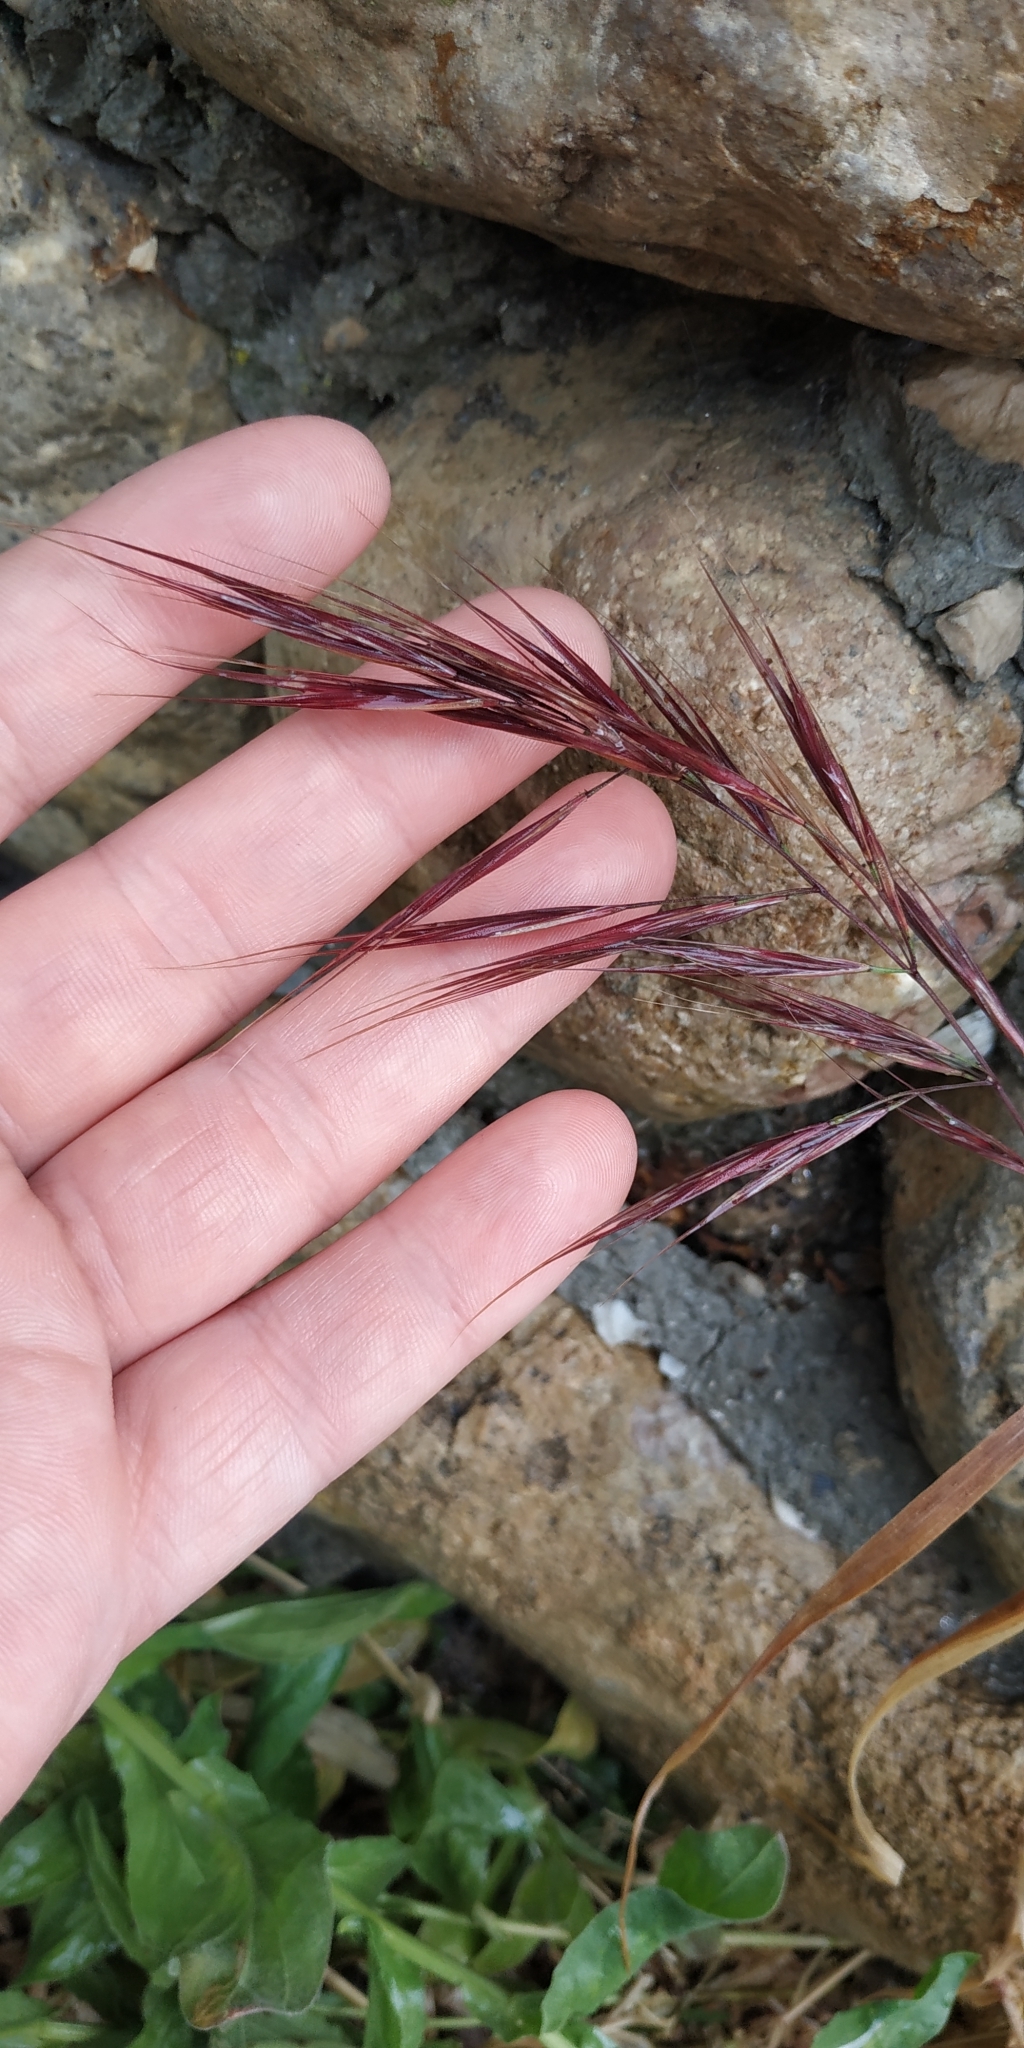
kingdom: Plantae
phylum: Tracheophyta
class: Liliopsida
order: Poales
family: Poaceae
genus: Bromus
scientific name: Bromus diandrus
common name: Ripgut brome
